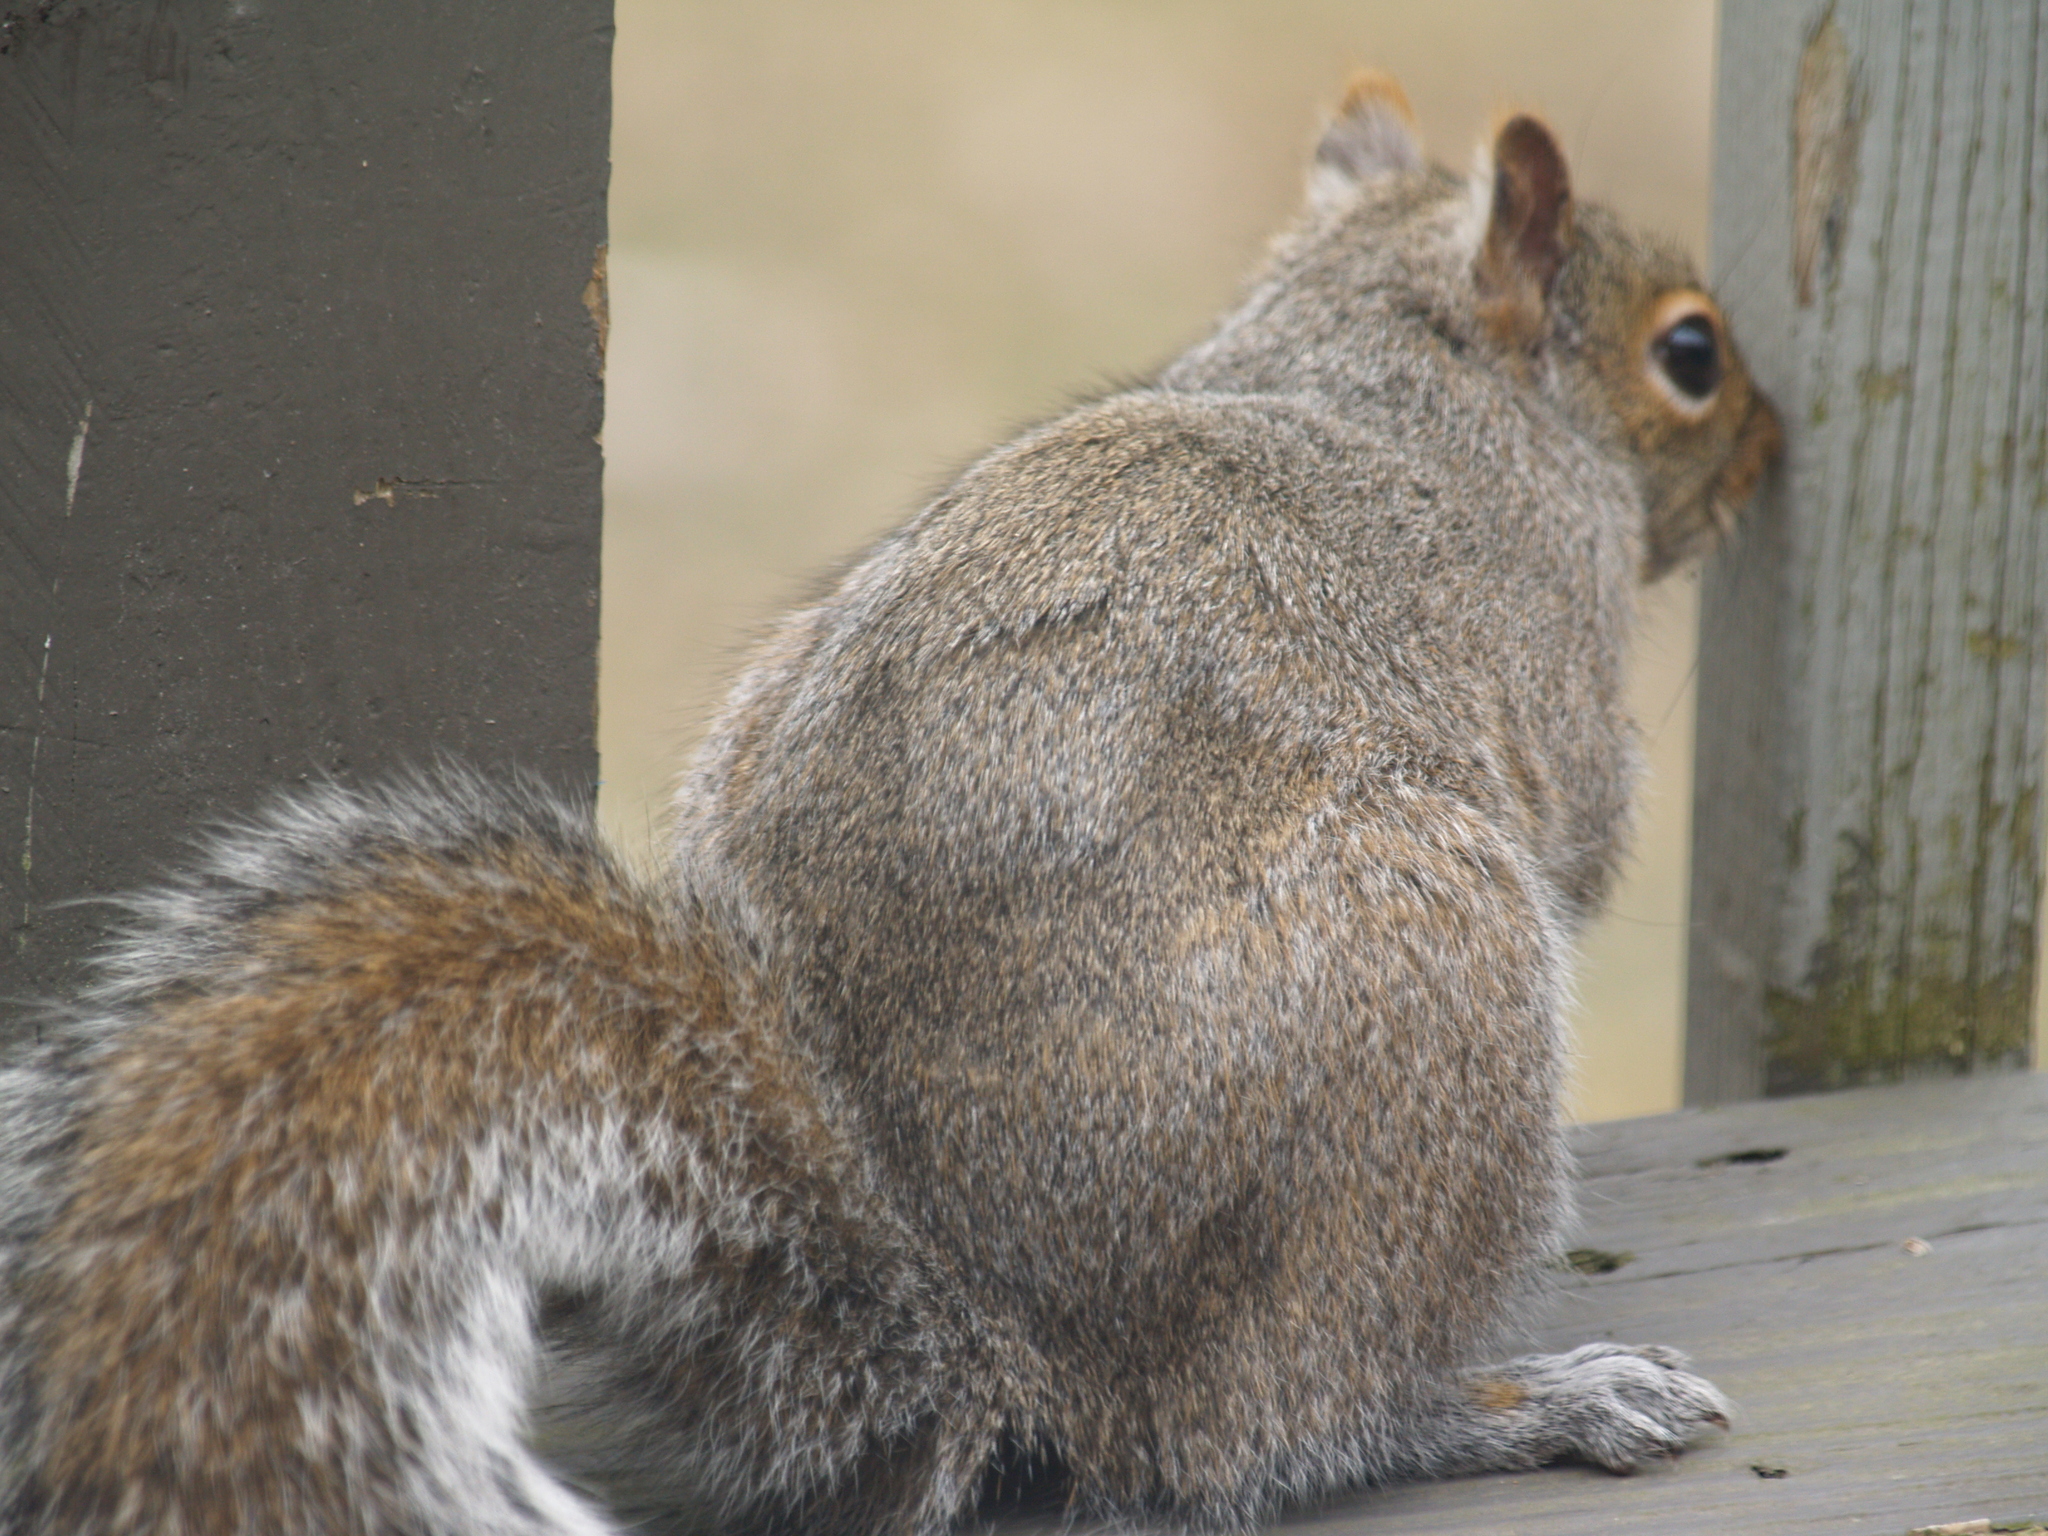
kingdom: Animalia
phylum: Chordata
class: Mammalia
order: Rodentia
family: Sciuridae
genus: Sciurus
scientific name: Sciurus carolinensis
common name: Eastern gray squirrel
